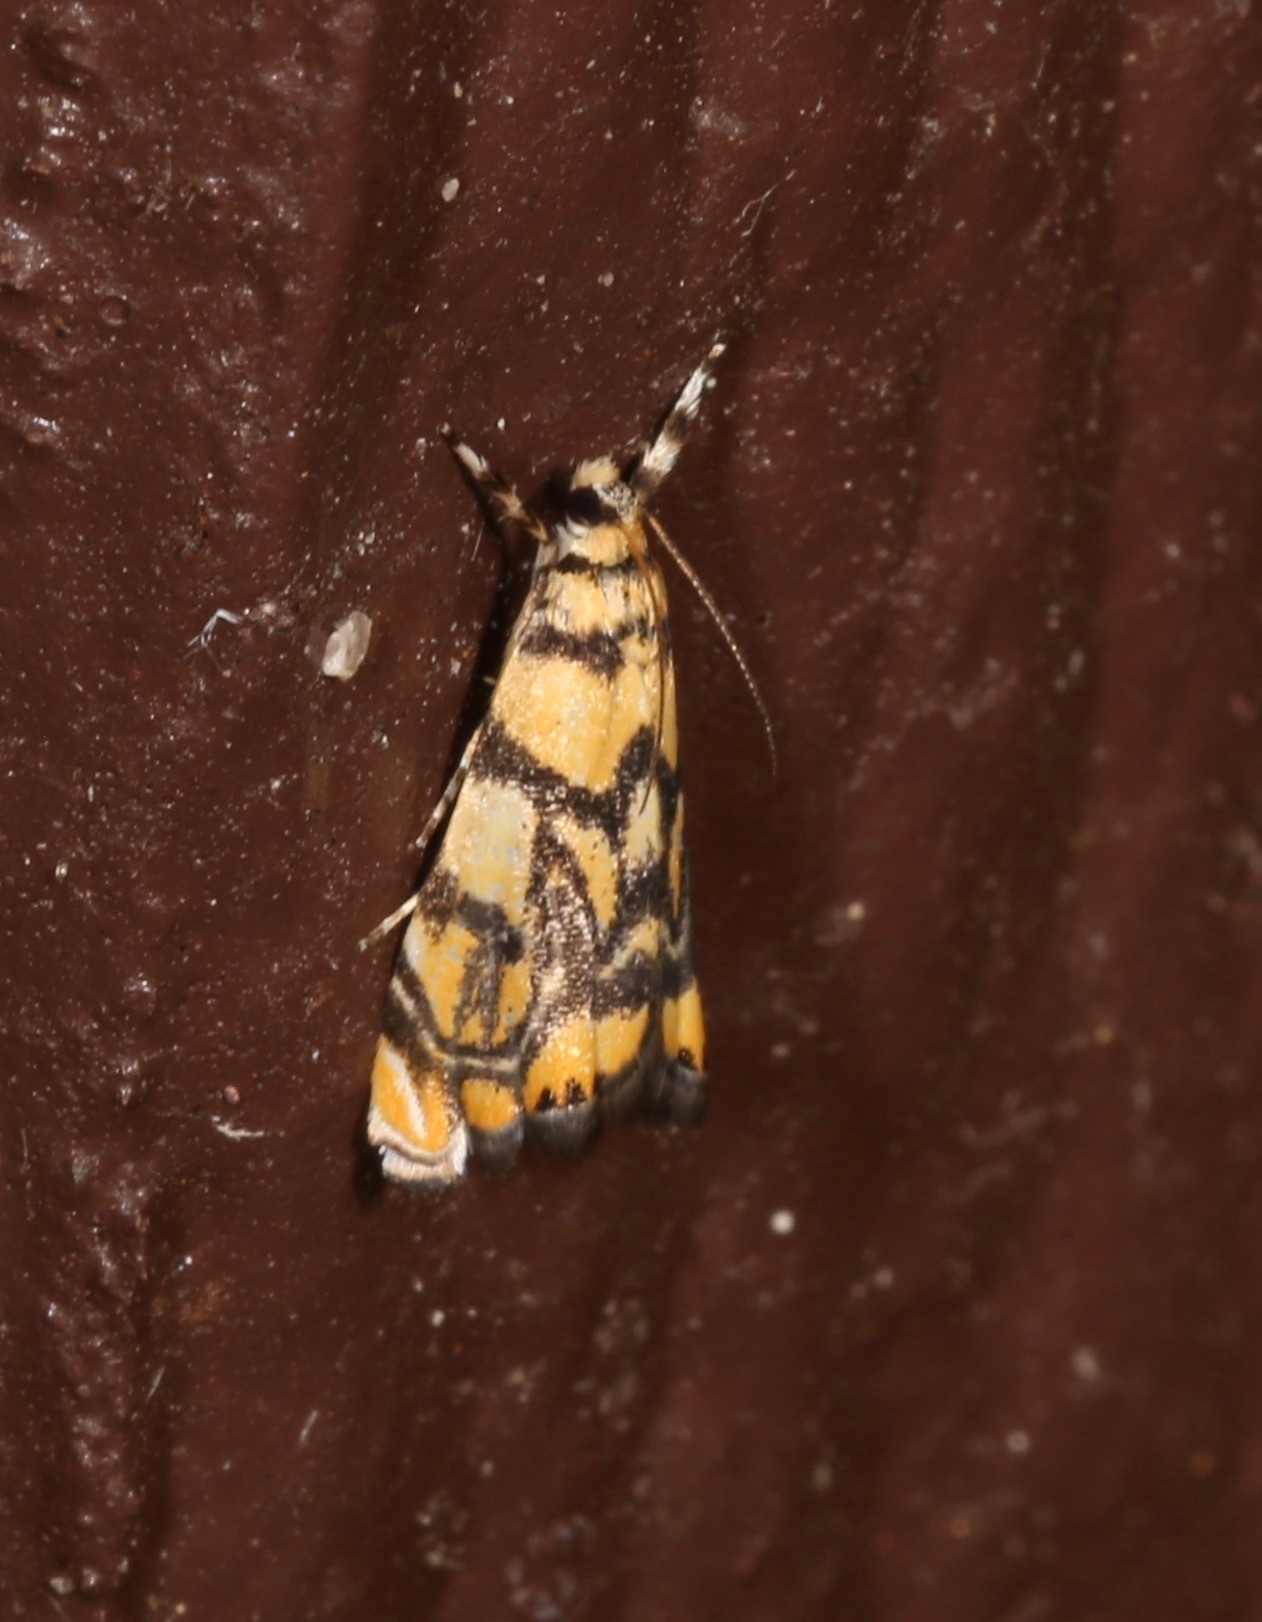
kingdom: Animalia
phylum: Arthropoda
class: Insecta
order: Lepidoptera
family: Crambidae
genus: Diptychophora
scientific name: Diptychophora harlequinalis
